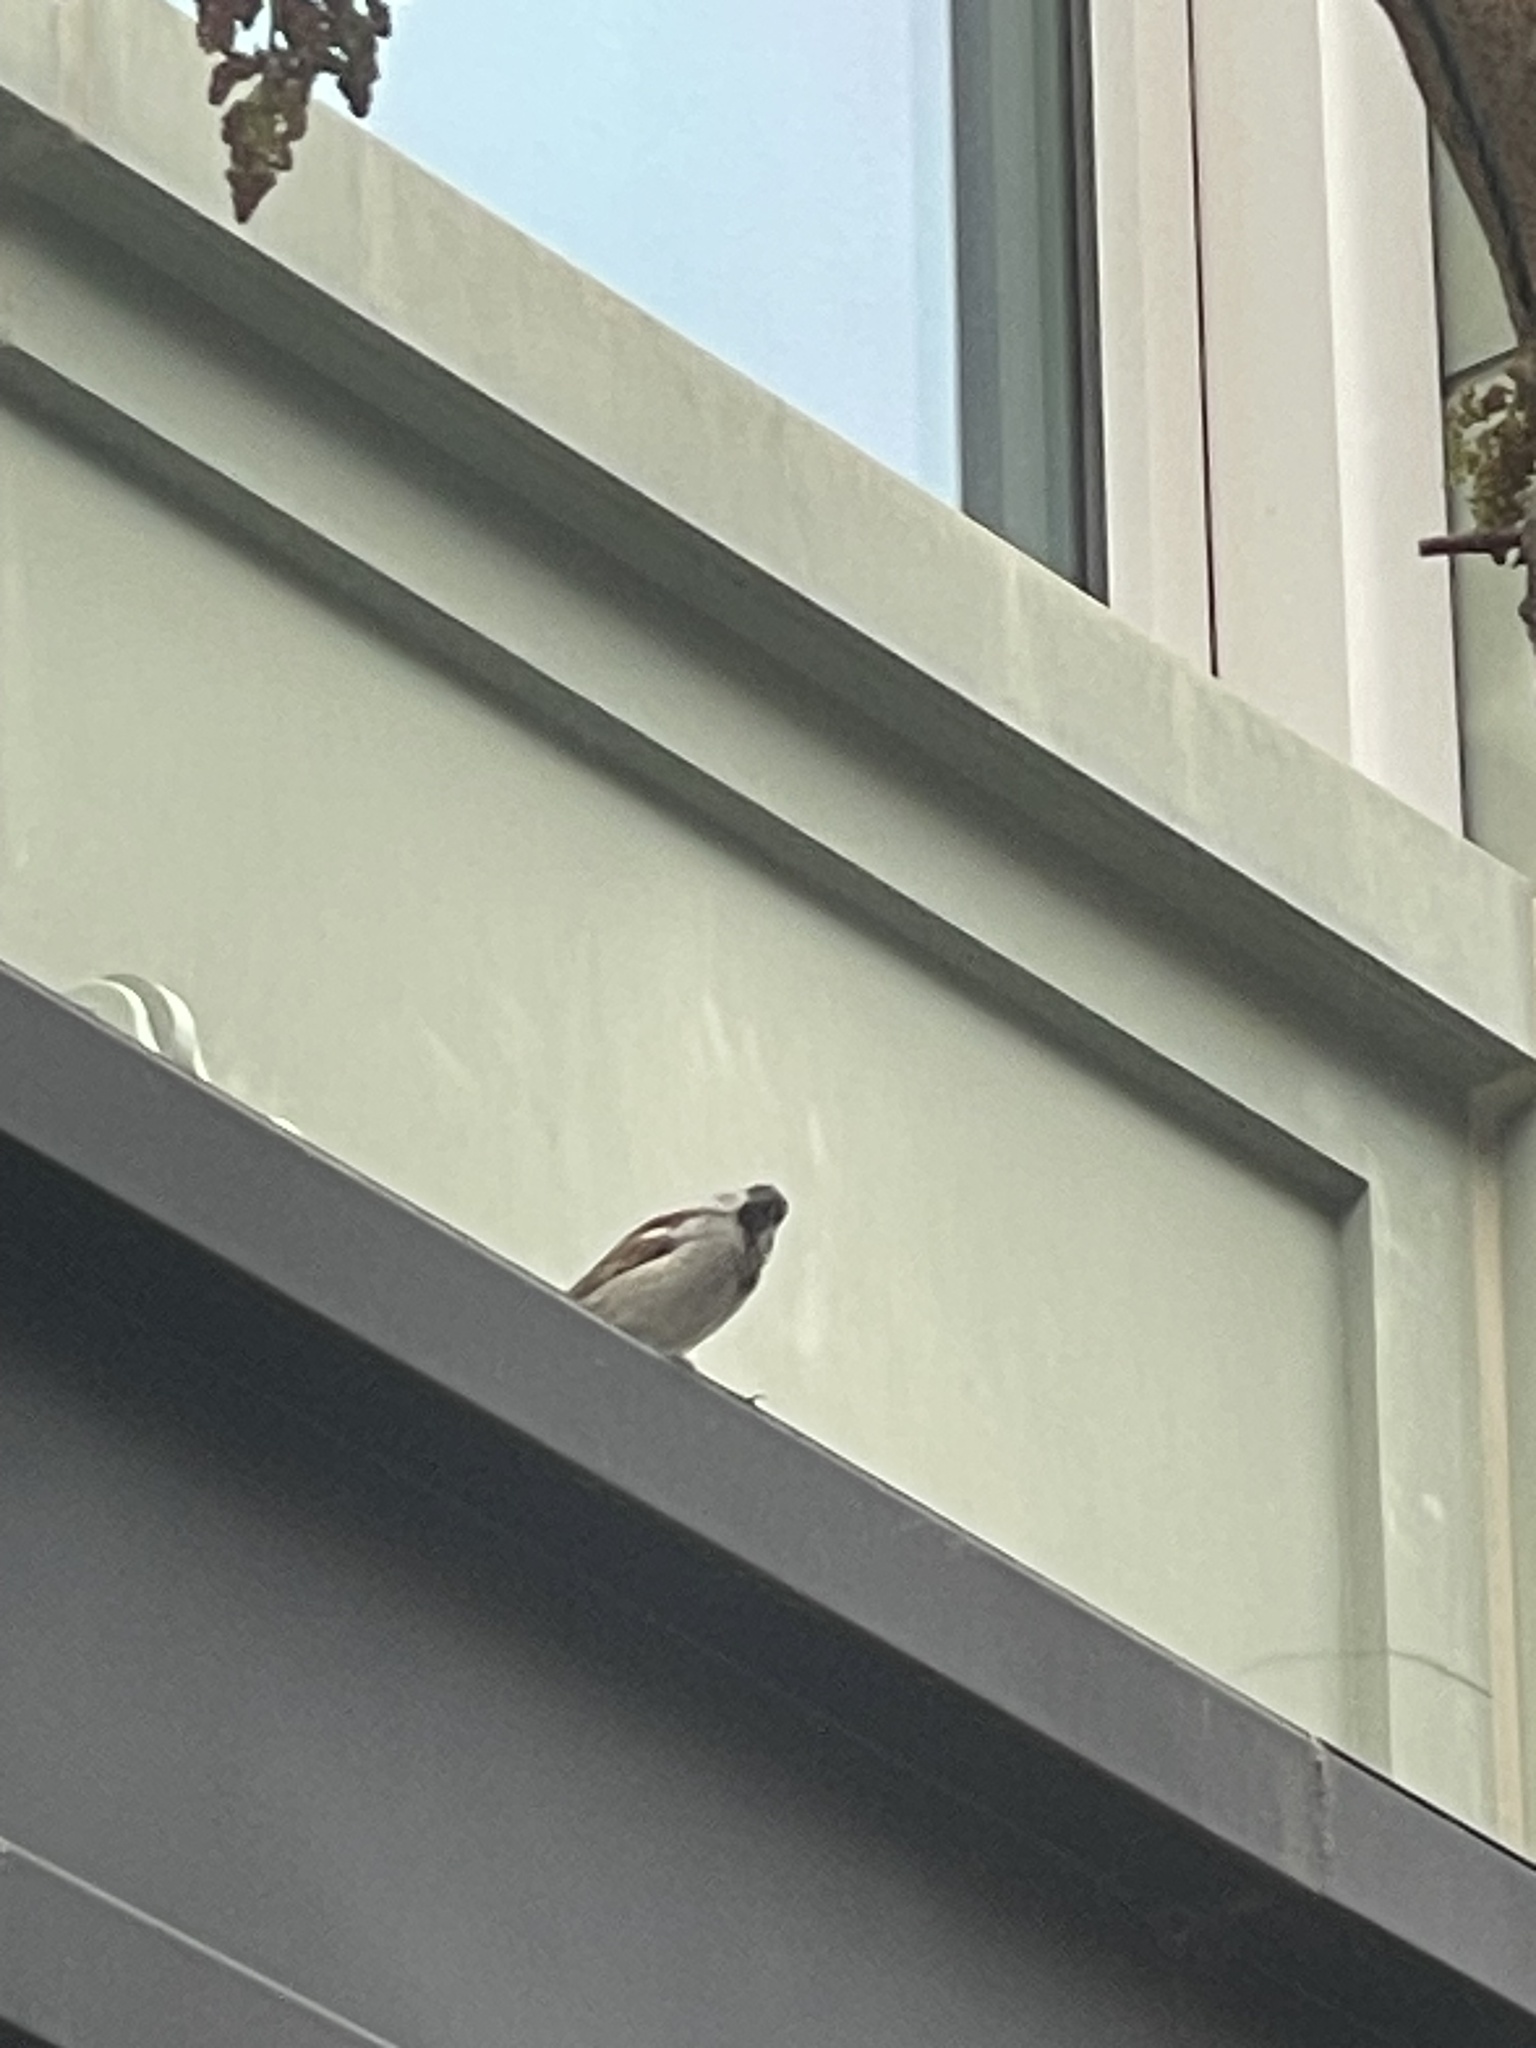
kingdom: Animalia
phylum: Chordata
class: Aves
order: Passeriformes
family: Passeridae
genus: Passer
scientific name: Passer domesticus
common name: House sparrow
